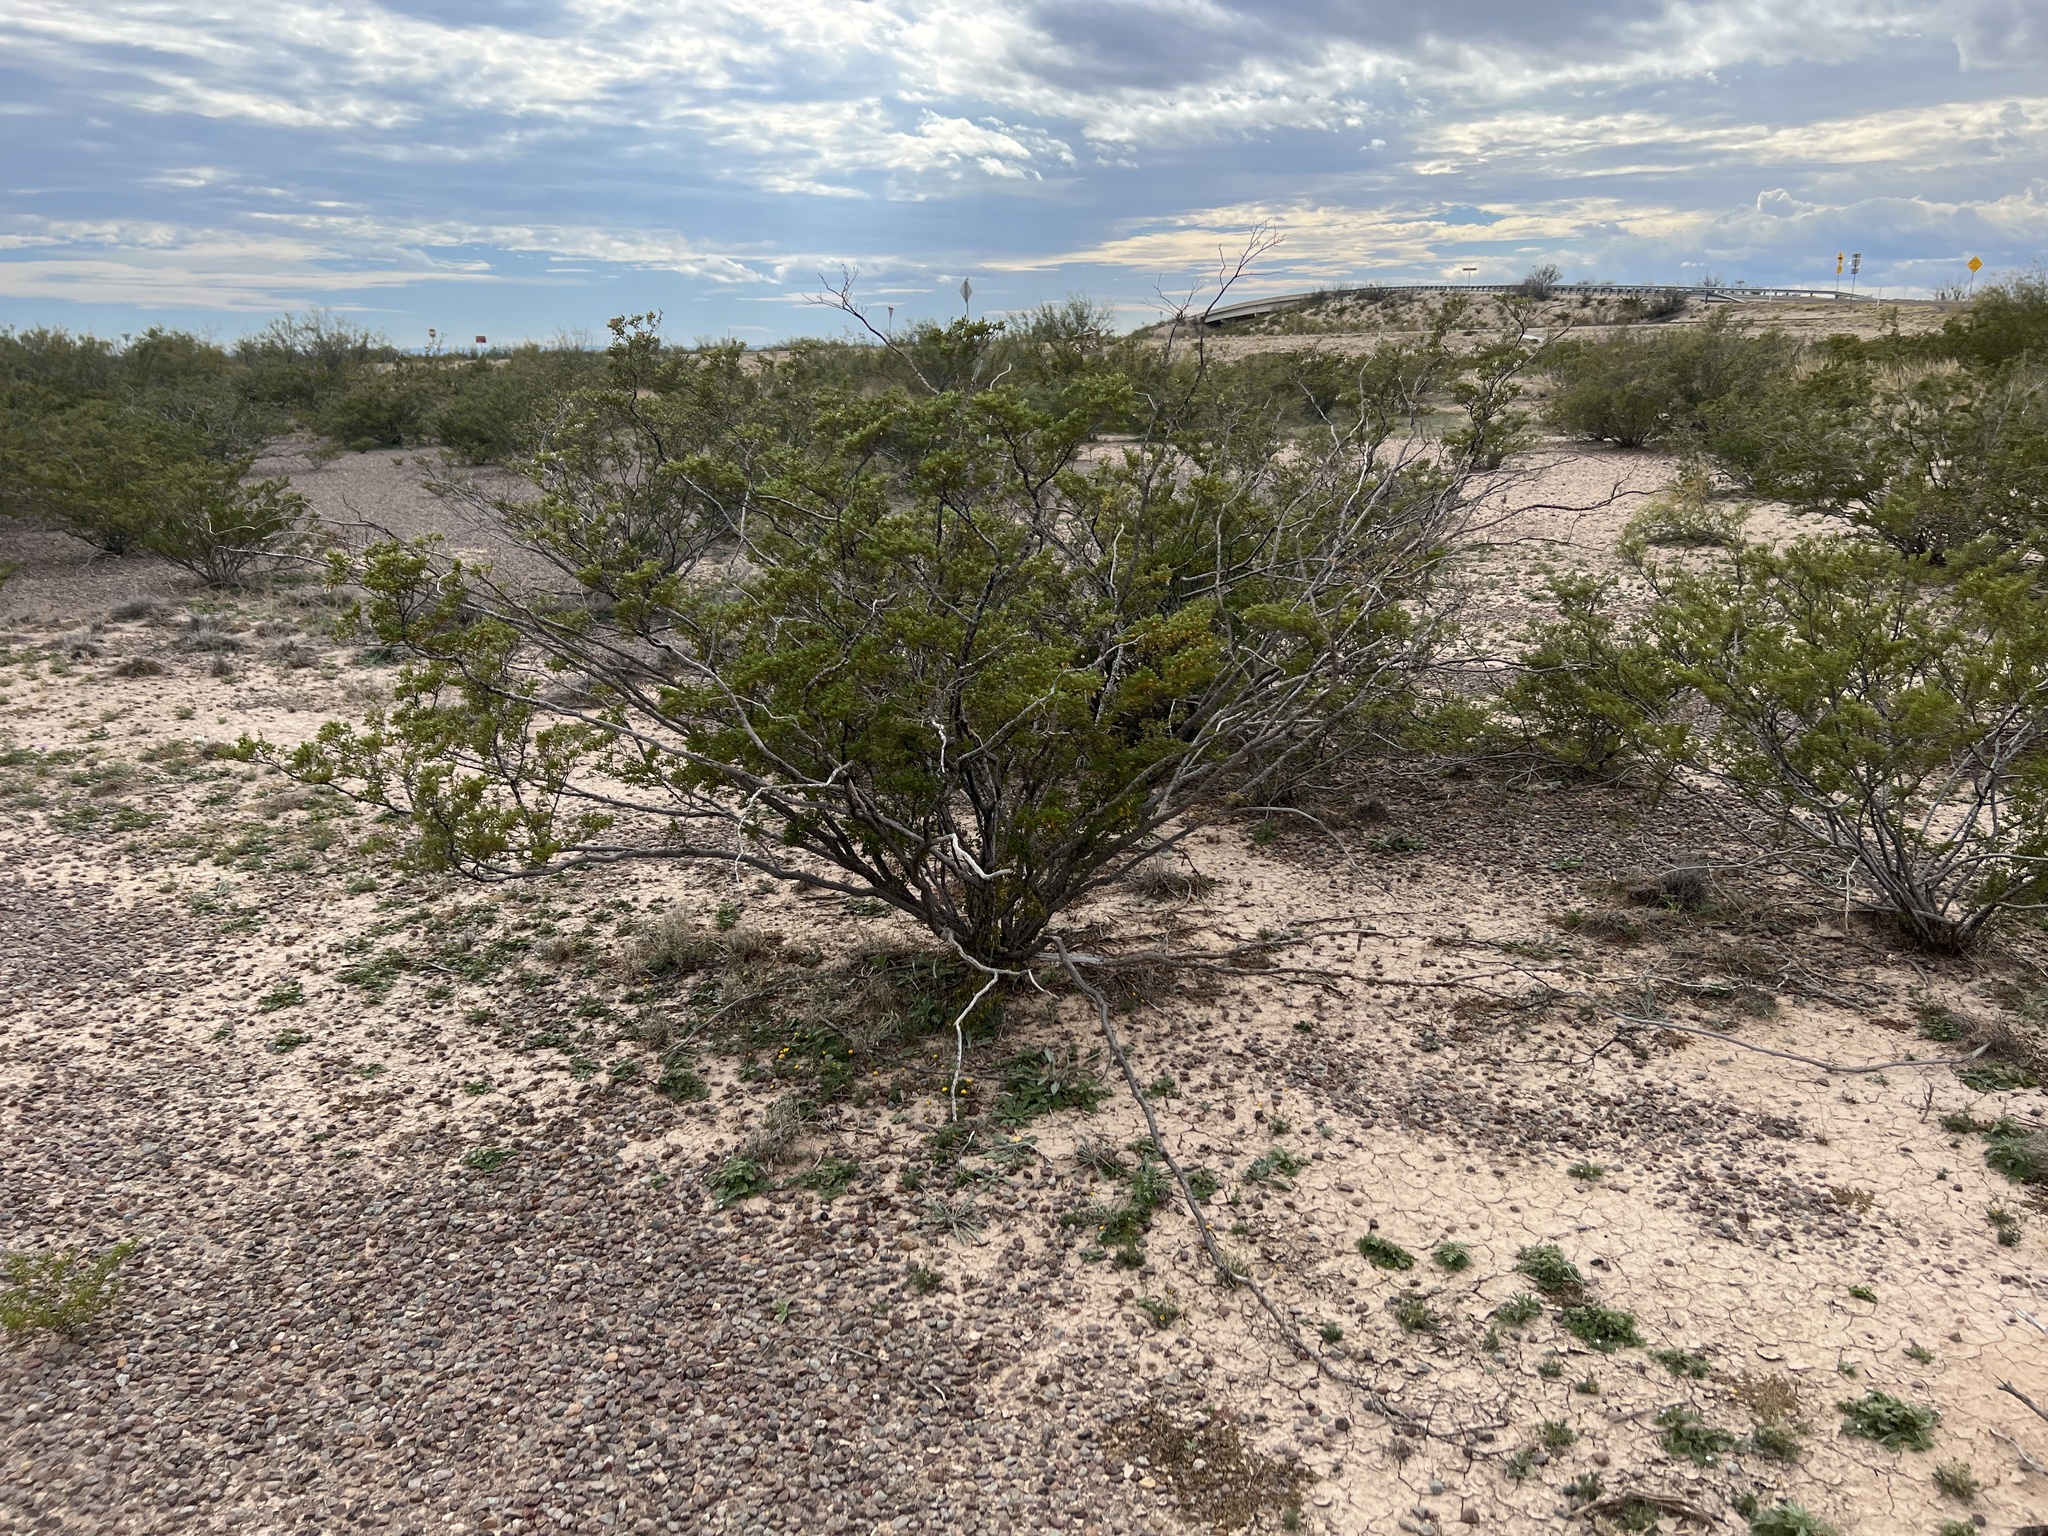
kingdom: Plantae
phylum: Tracheophyta
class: Magnoliopsida
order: Zygophyllales
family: Zygophyllaceae
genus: Larrea
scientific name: Larrea tridentata
